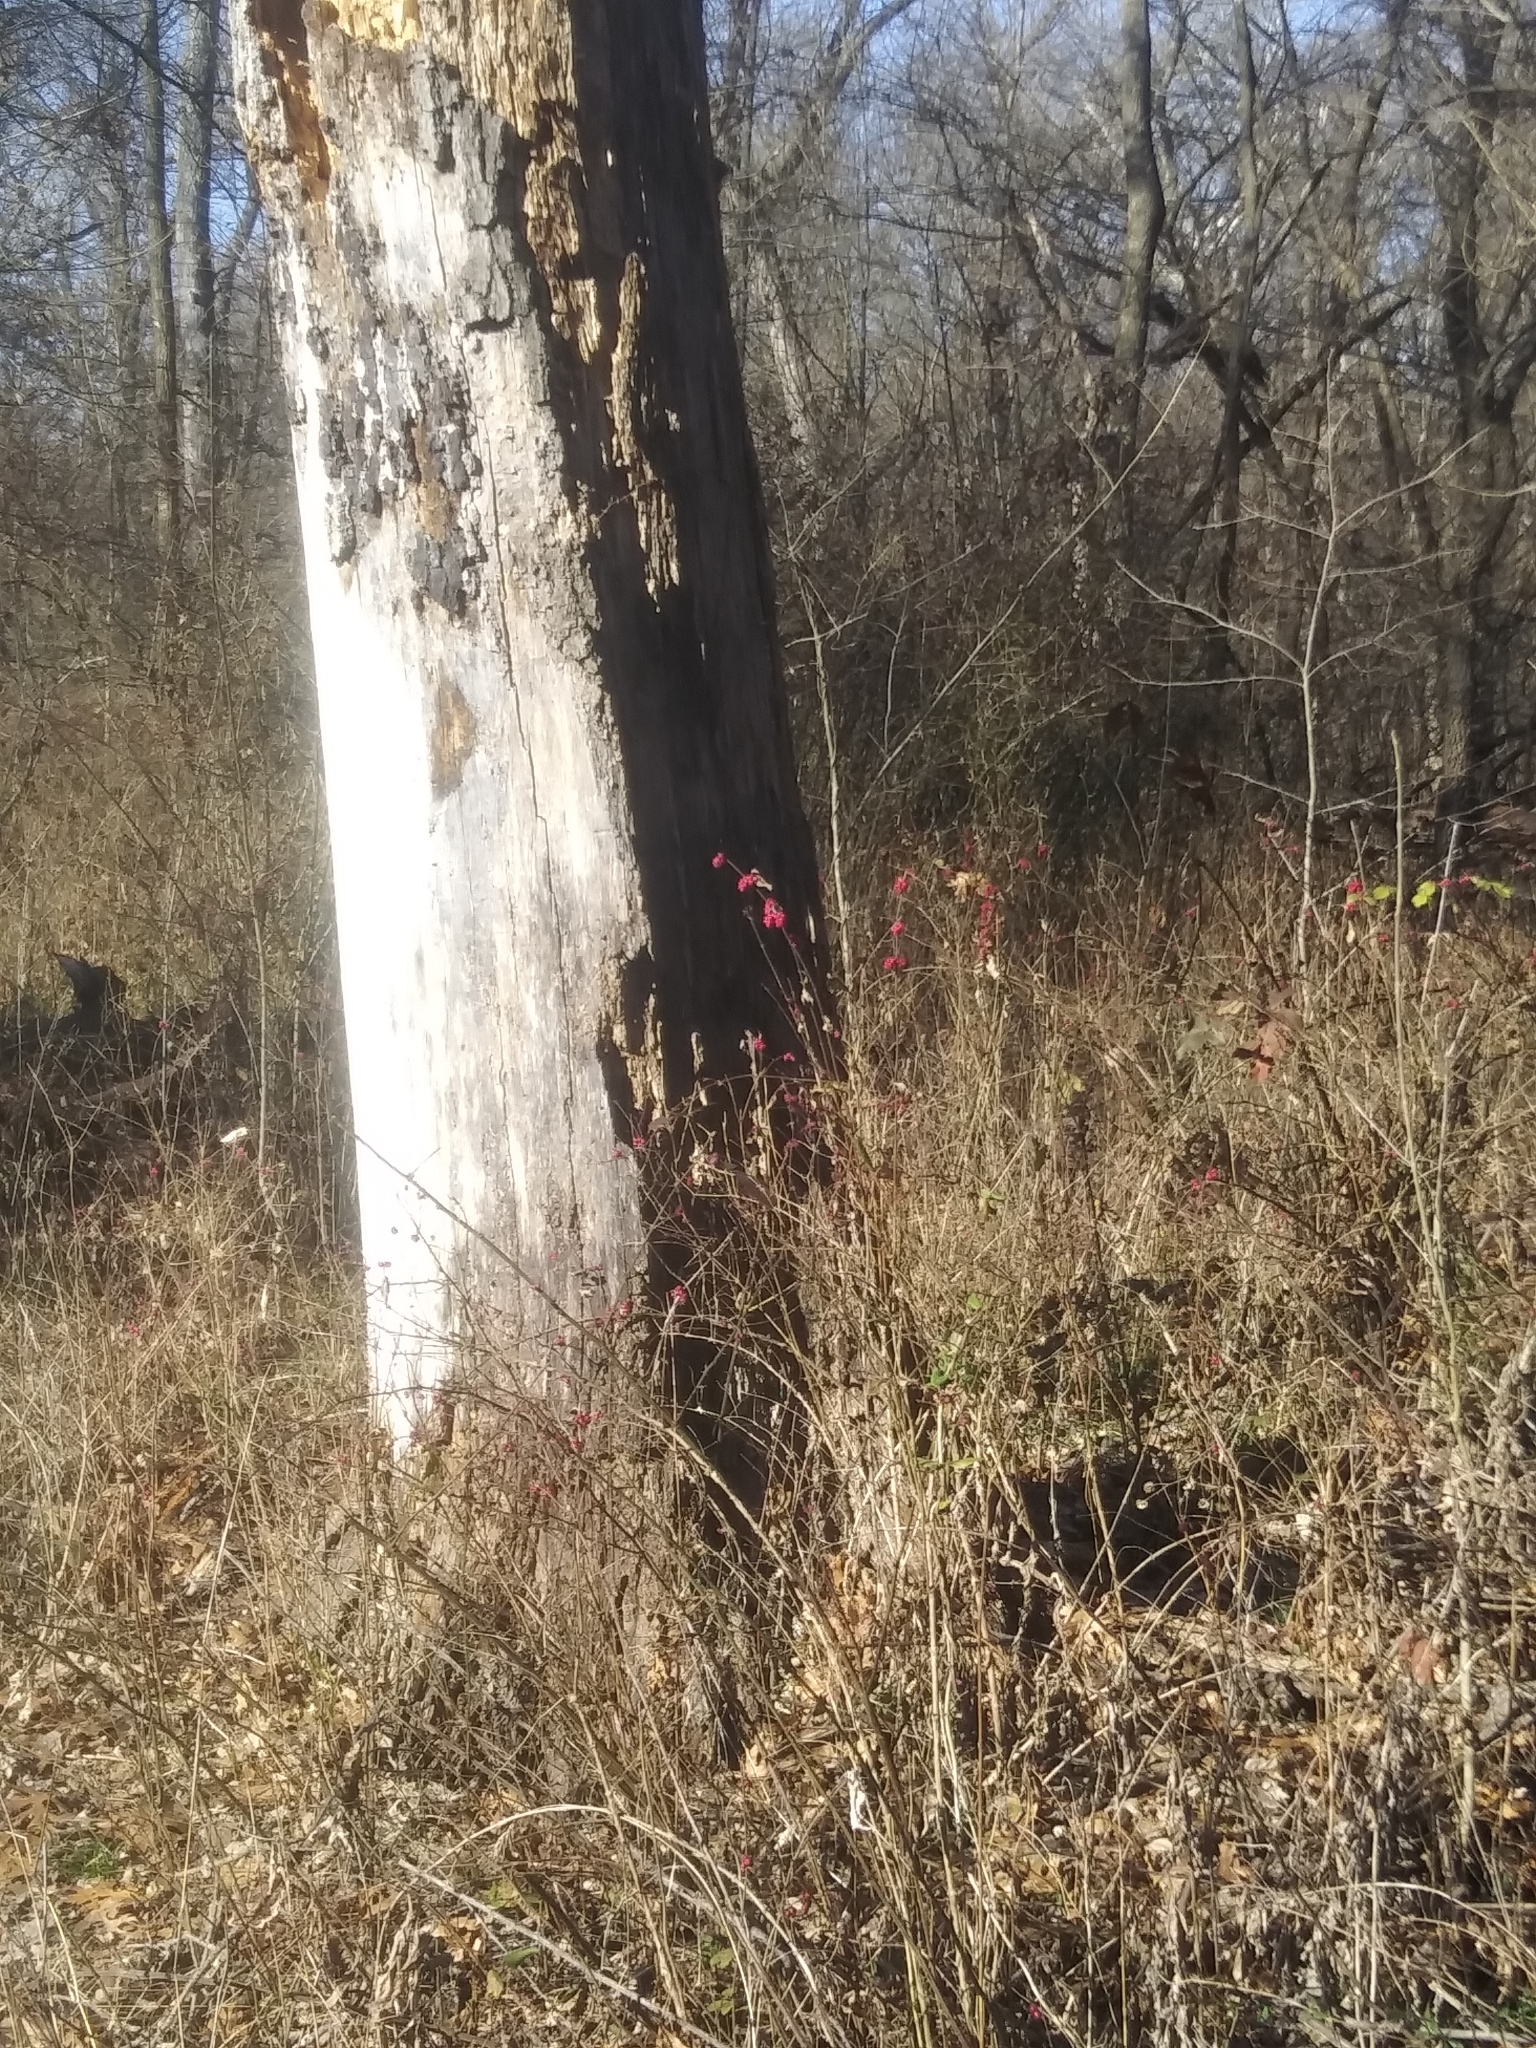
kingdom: Plantae
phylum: Tracheophyta
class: Magnoliopsida
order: Dipsacales
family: Caprifoliaceae
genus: Symphoricarpos
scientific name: Symphoricarpos orbiculatus
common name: Coralberry
